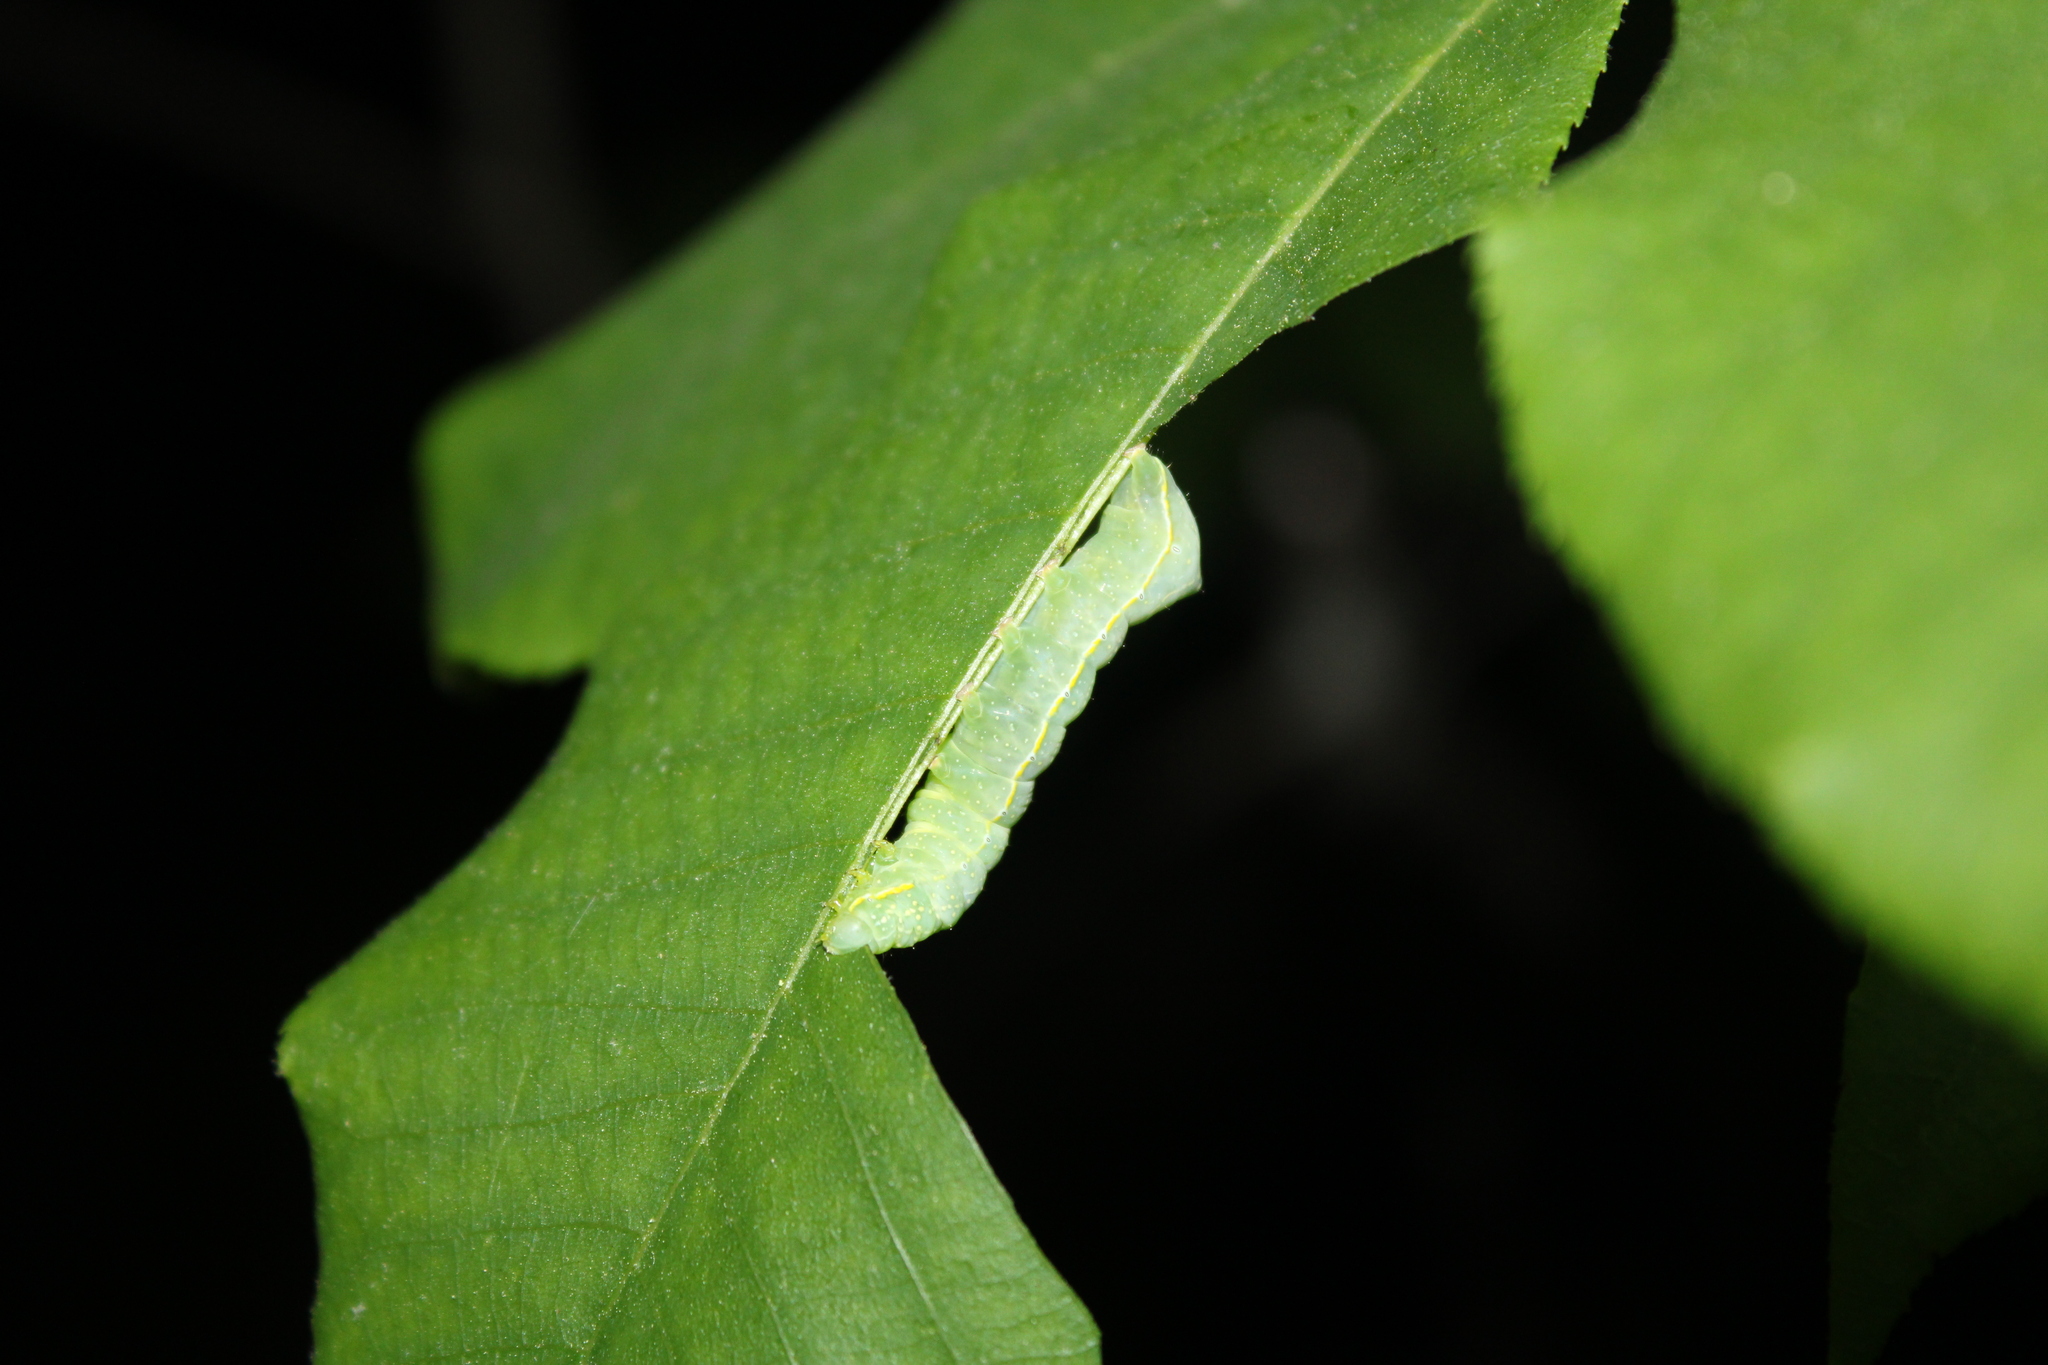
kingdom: Animalia
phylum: Arthropoda
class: Insecta
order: Lepidoptera
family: Noctuidae
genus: Amphipyra
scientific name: Amphipyra pyramidoides
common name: American copper underwing
